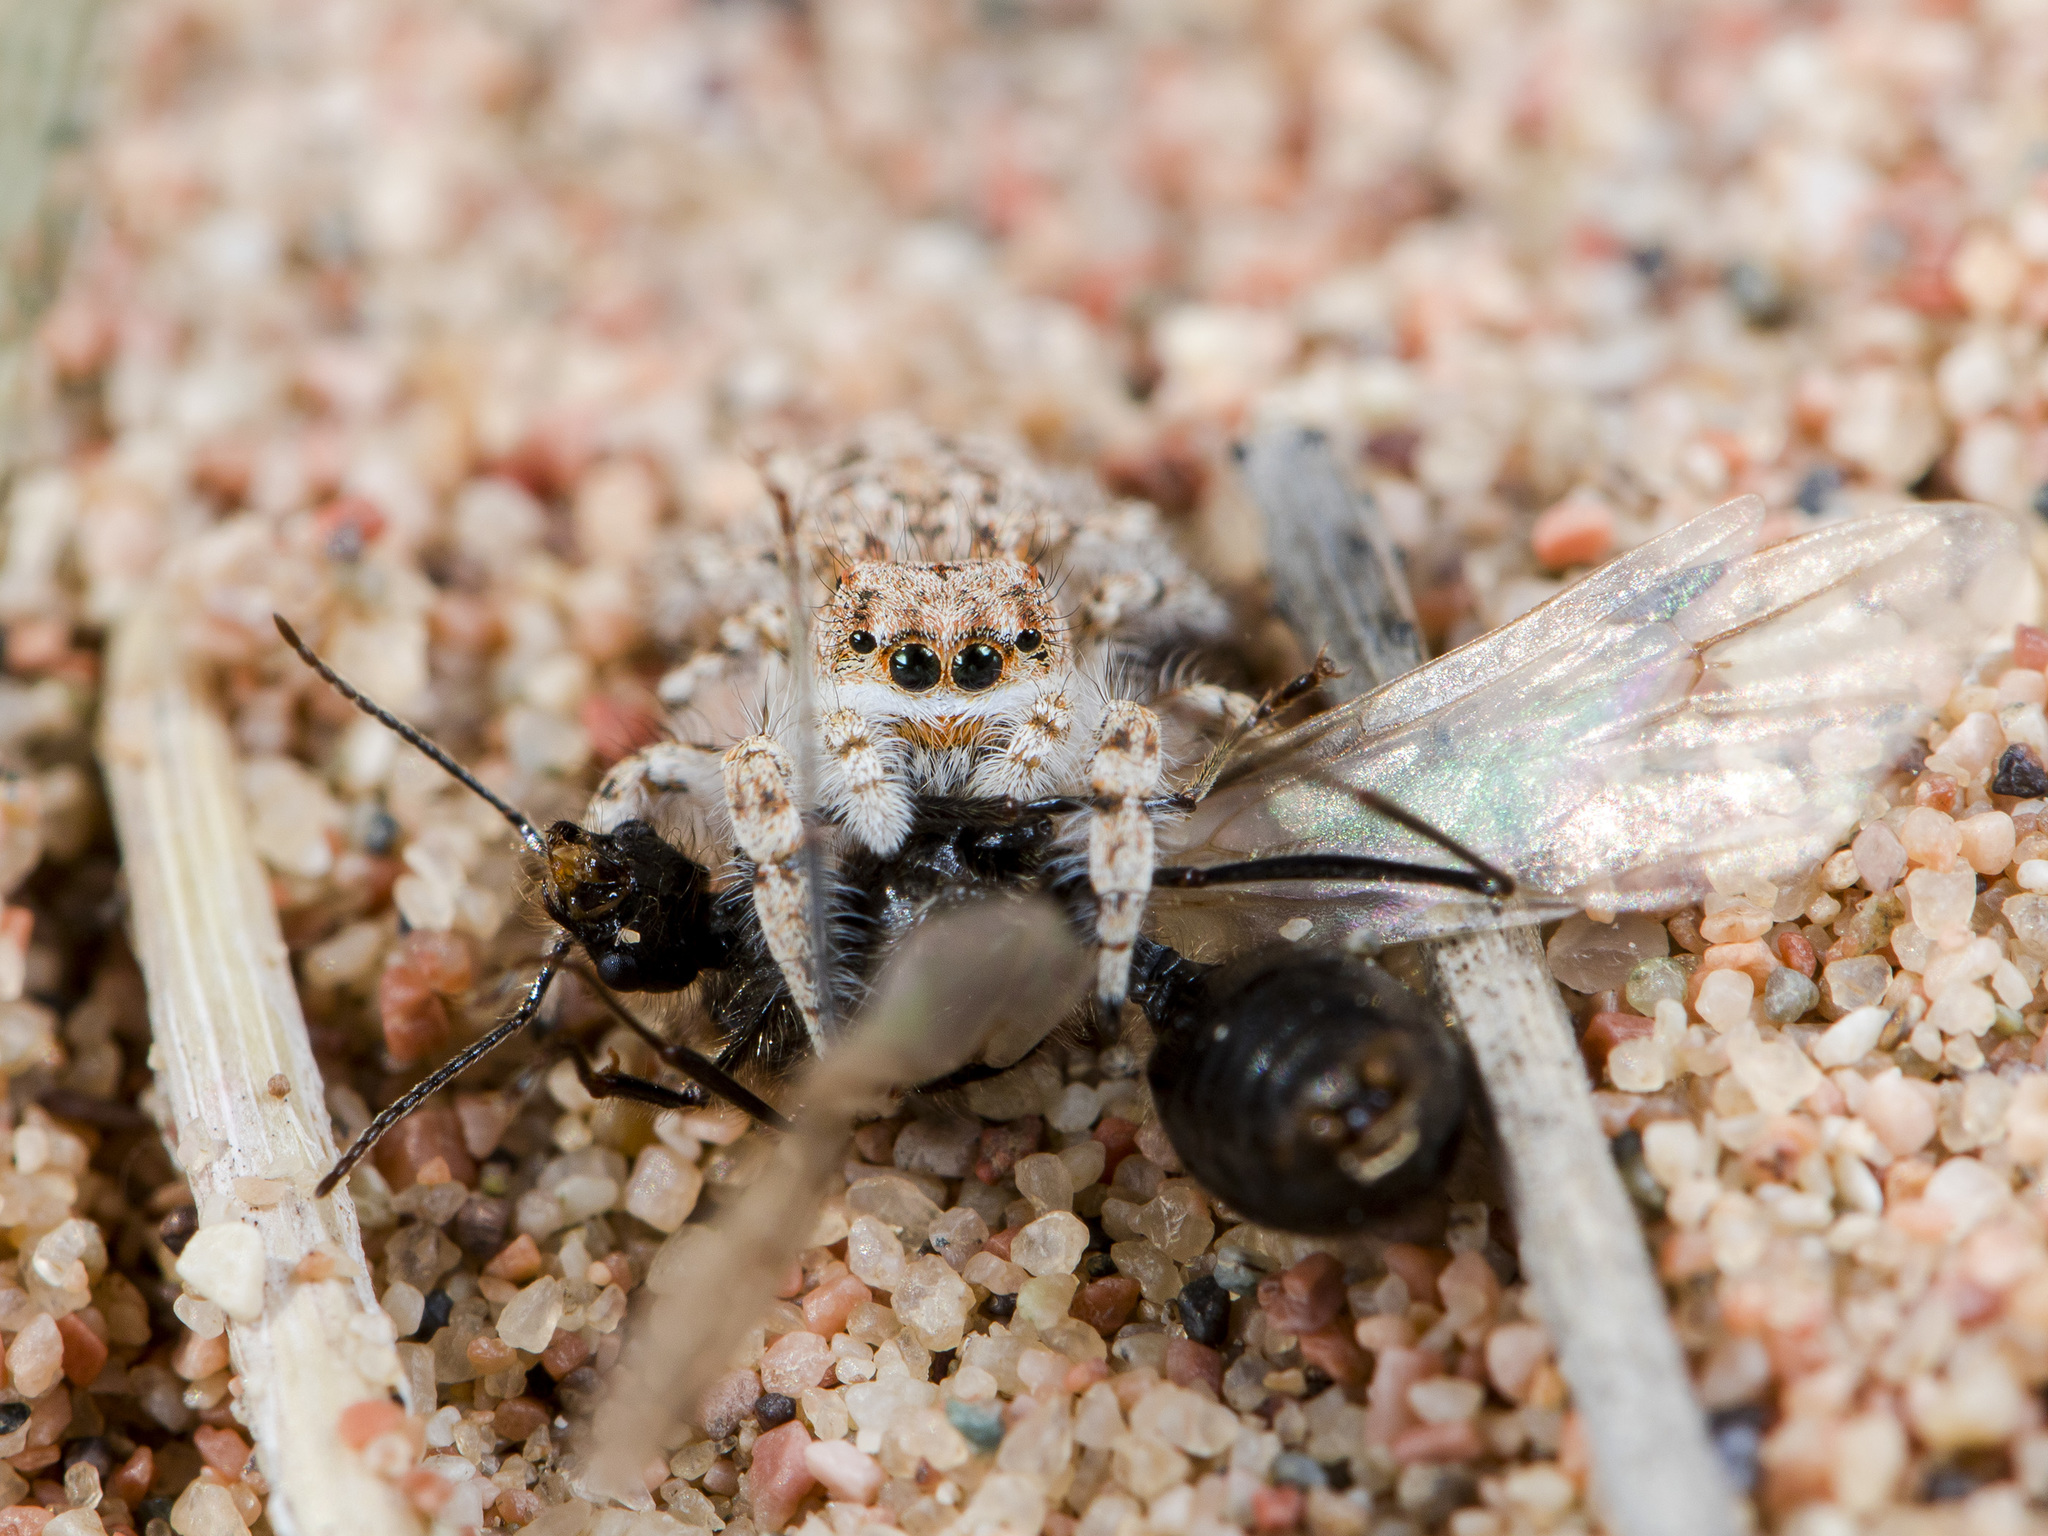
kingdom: Animalia
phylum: Arthropoda
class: Arachnida
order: Araneae
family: Salticidae
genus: Yllenus
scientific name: Yllenus uiguricus
